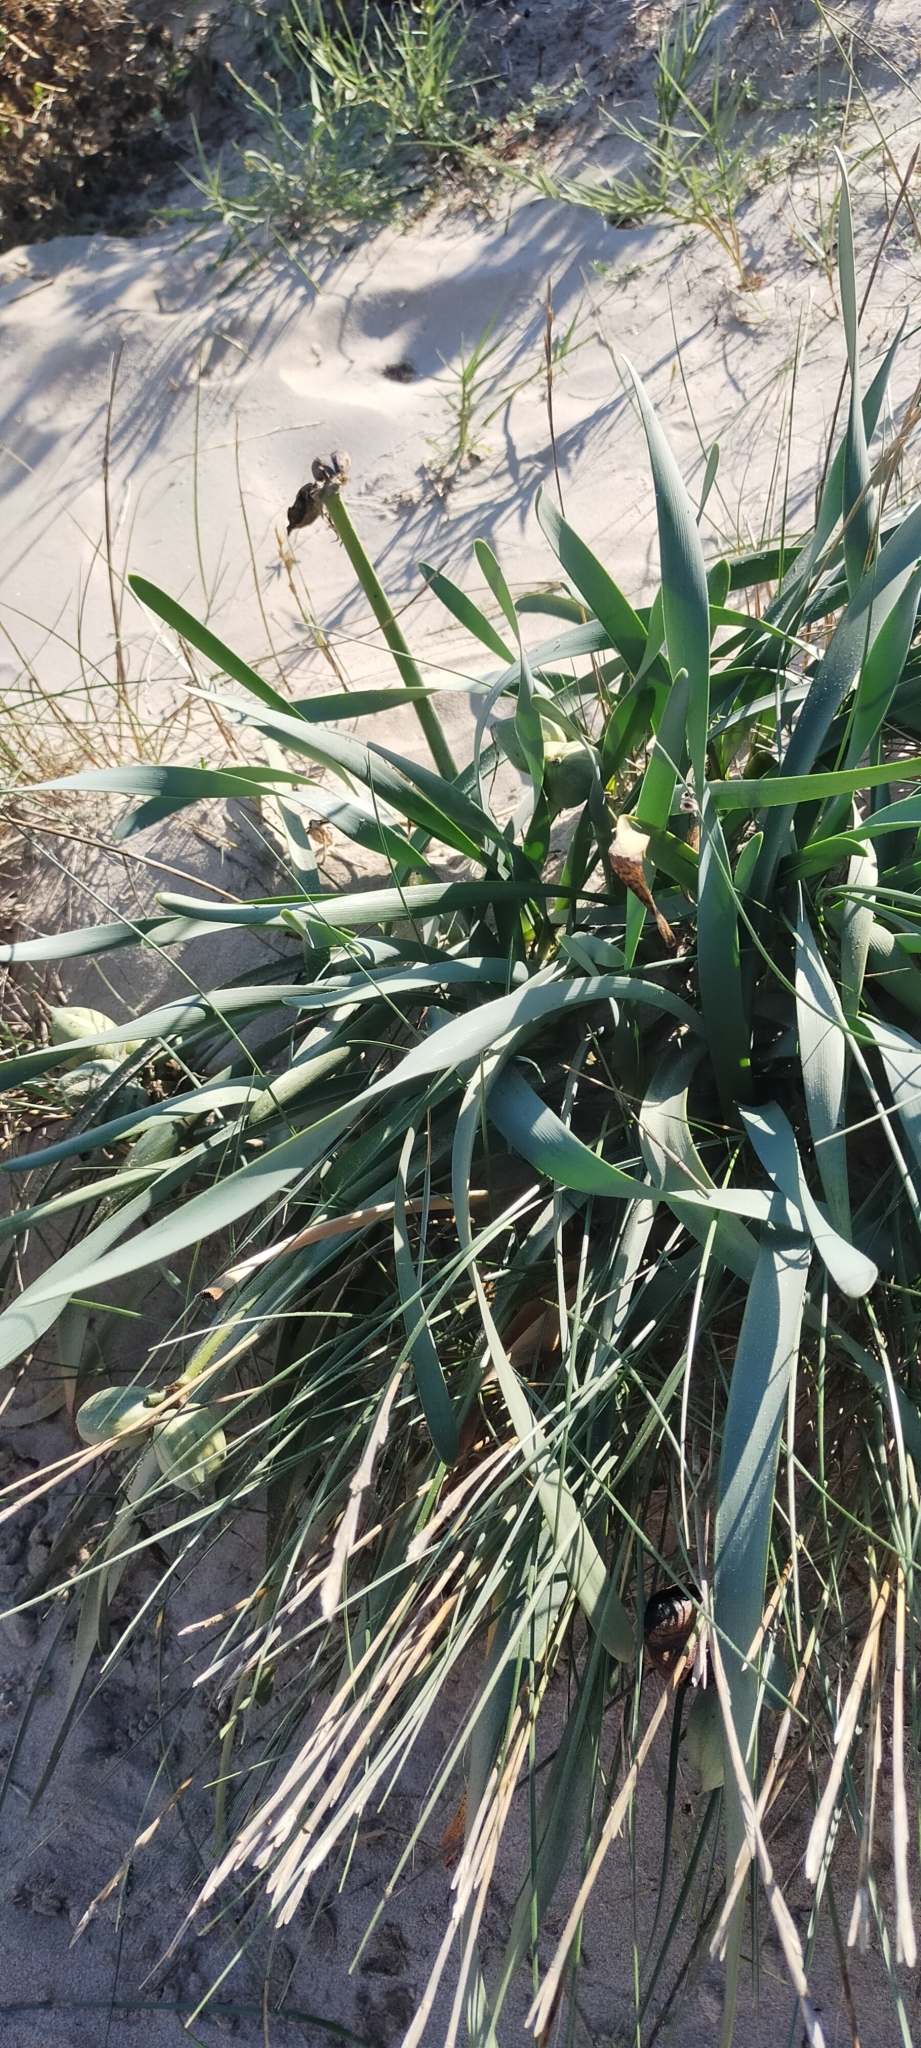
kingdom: Plantae
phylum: Tracheophyta
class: Liliopsida
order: Asparagales
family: Amaryllidaceae
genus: Pancratium
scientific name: Pancratium maritimum
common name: Sea-daffodil
